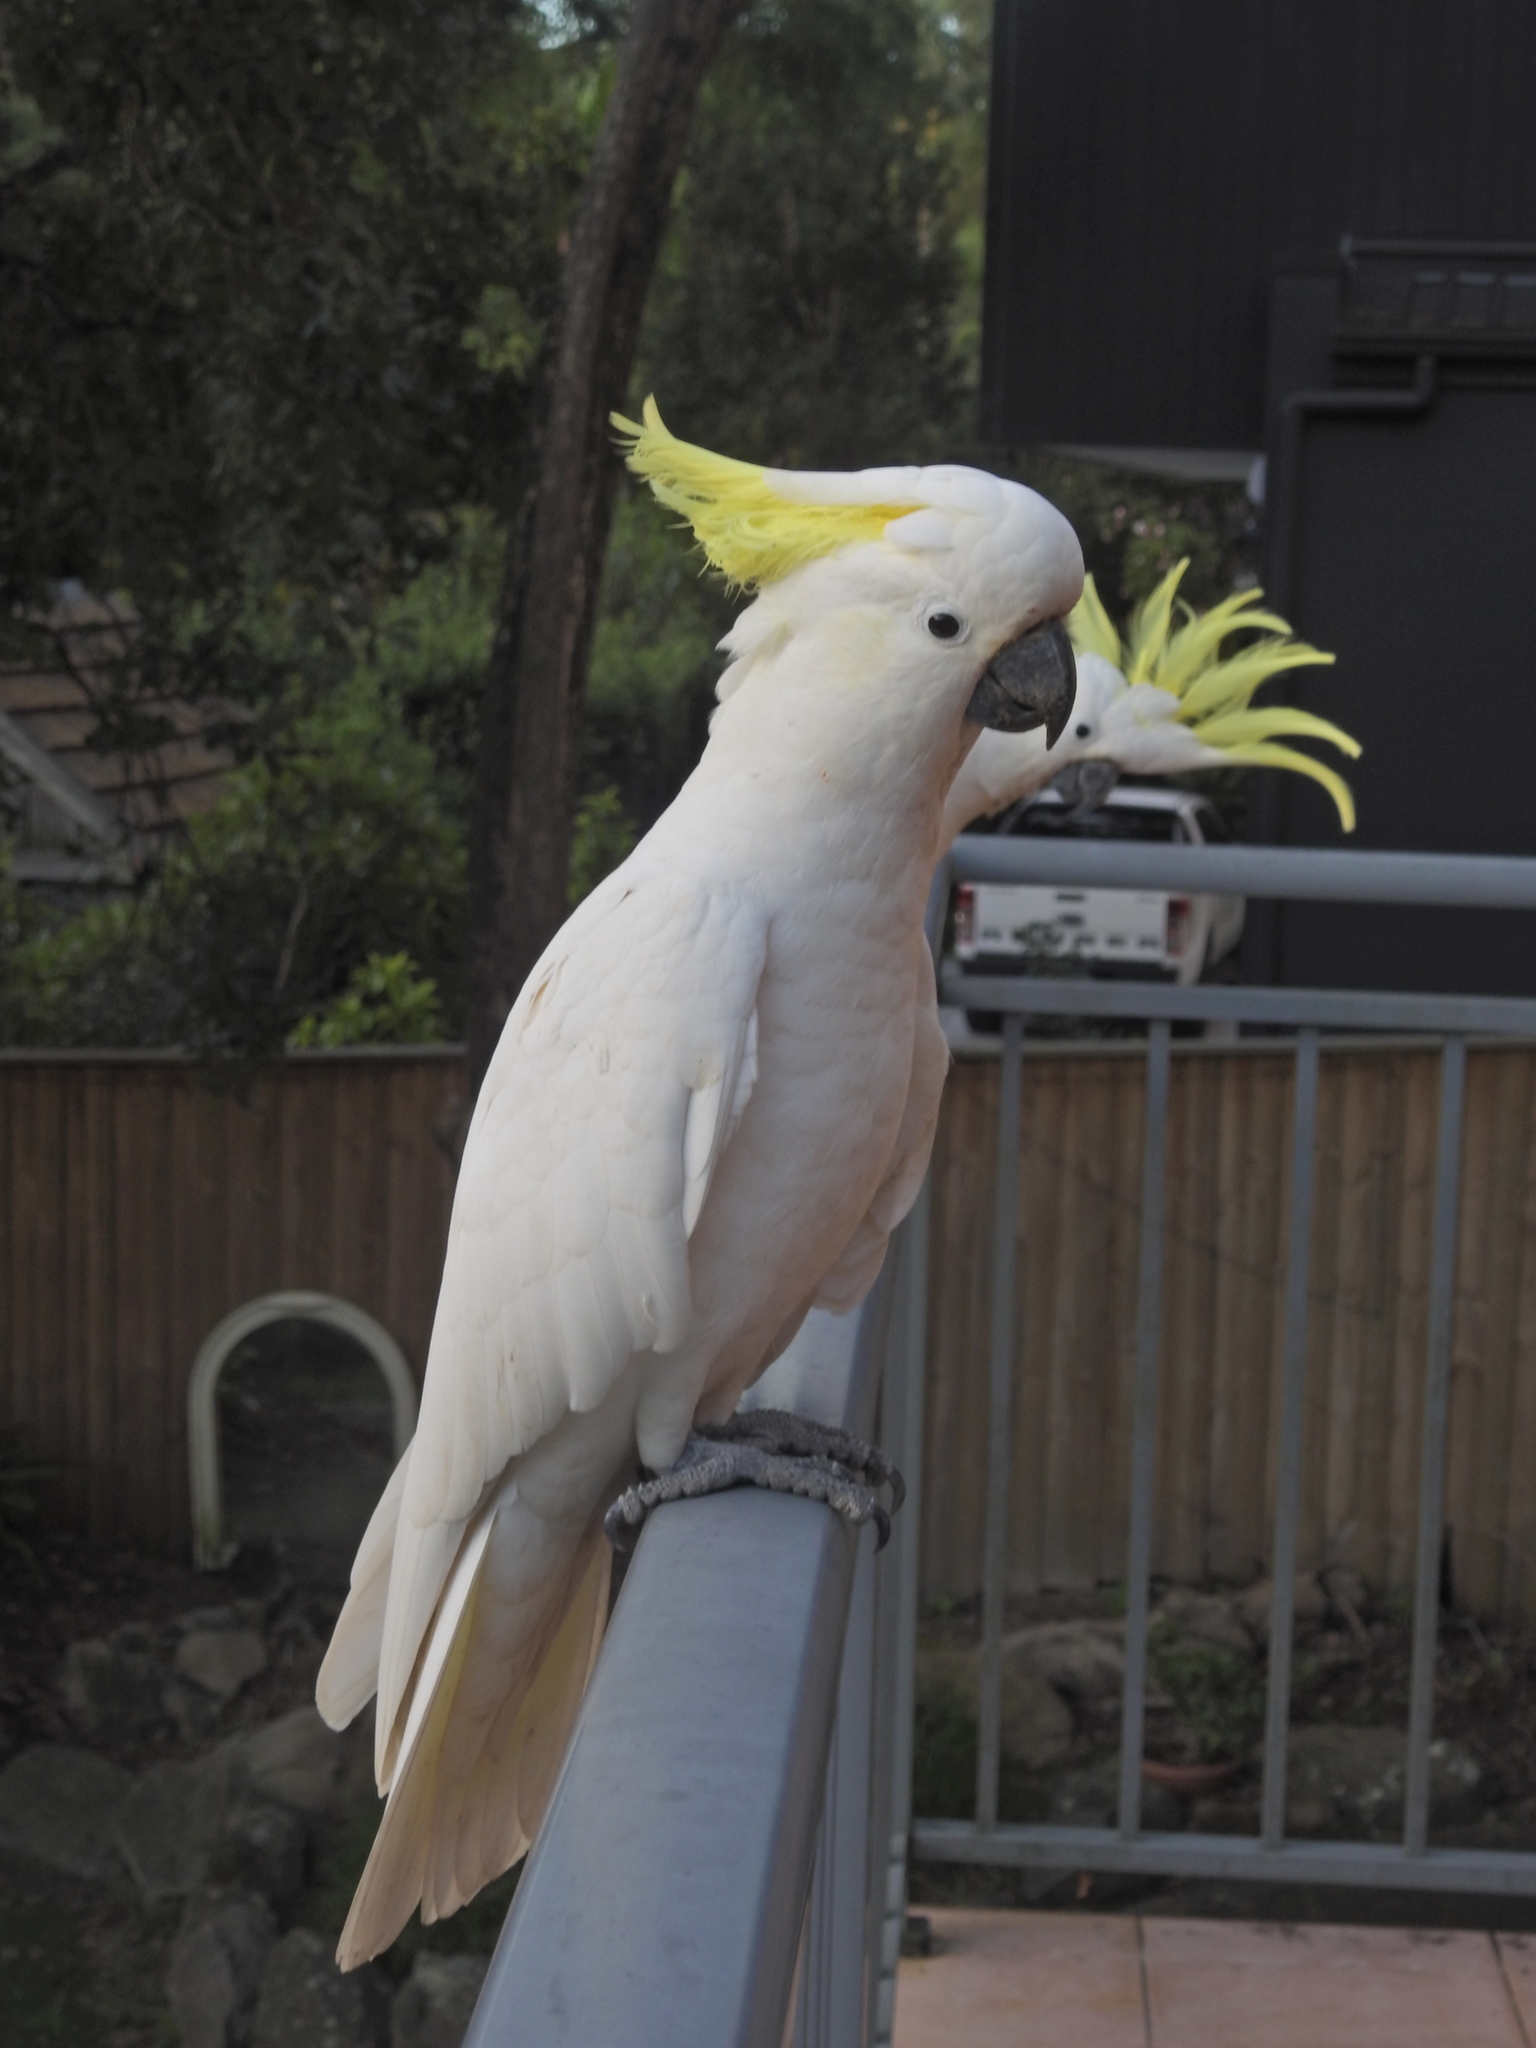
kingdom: Animalia
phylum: Chordata
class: Aves
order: Psittaciformes
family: Psittacidae
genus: Cacatua
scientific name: Cacatua galerita
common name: Sulphur-crested cockatoo
